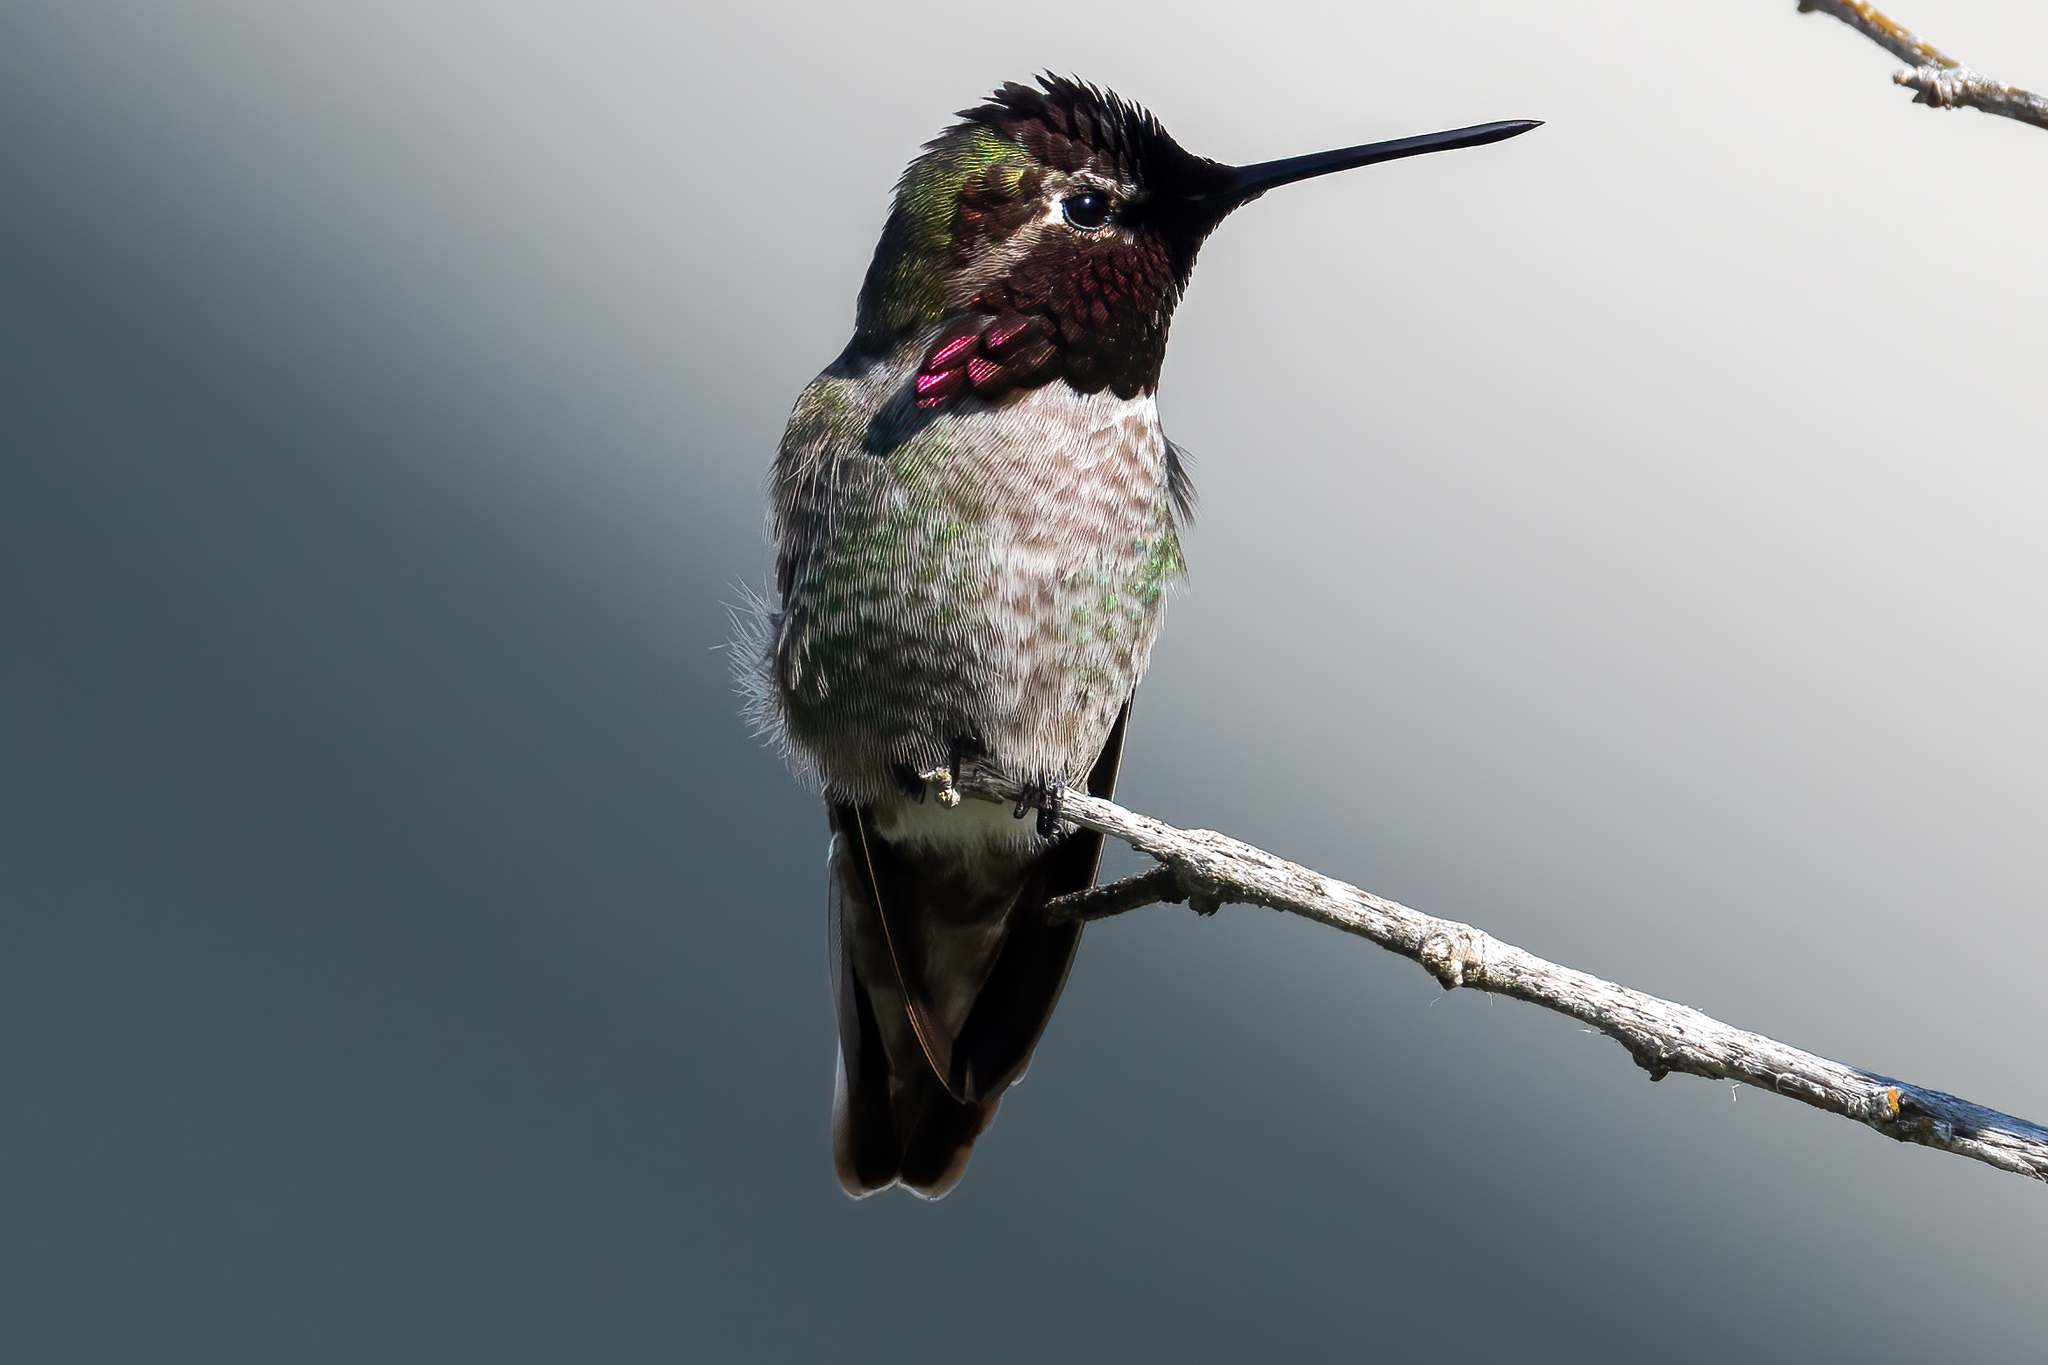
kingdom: Animalia
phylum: Chordata
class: Aves
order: Apodiformes
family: Trochilidae
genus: Calypte
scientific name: Calypte anna
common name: Anna's hummingbird
